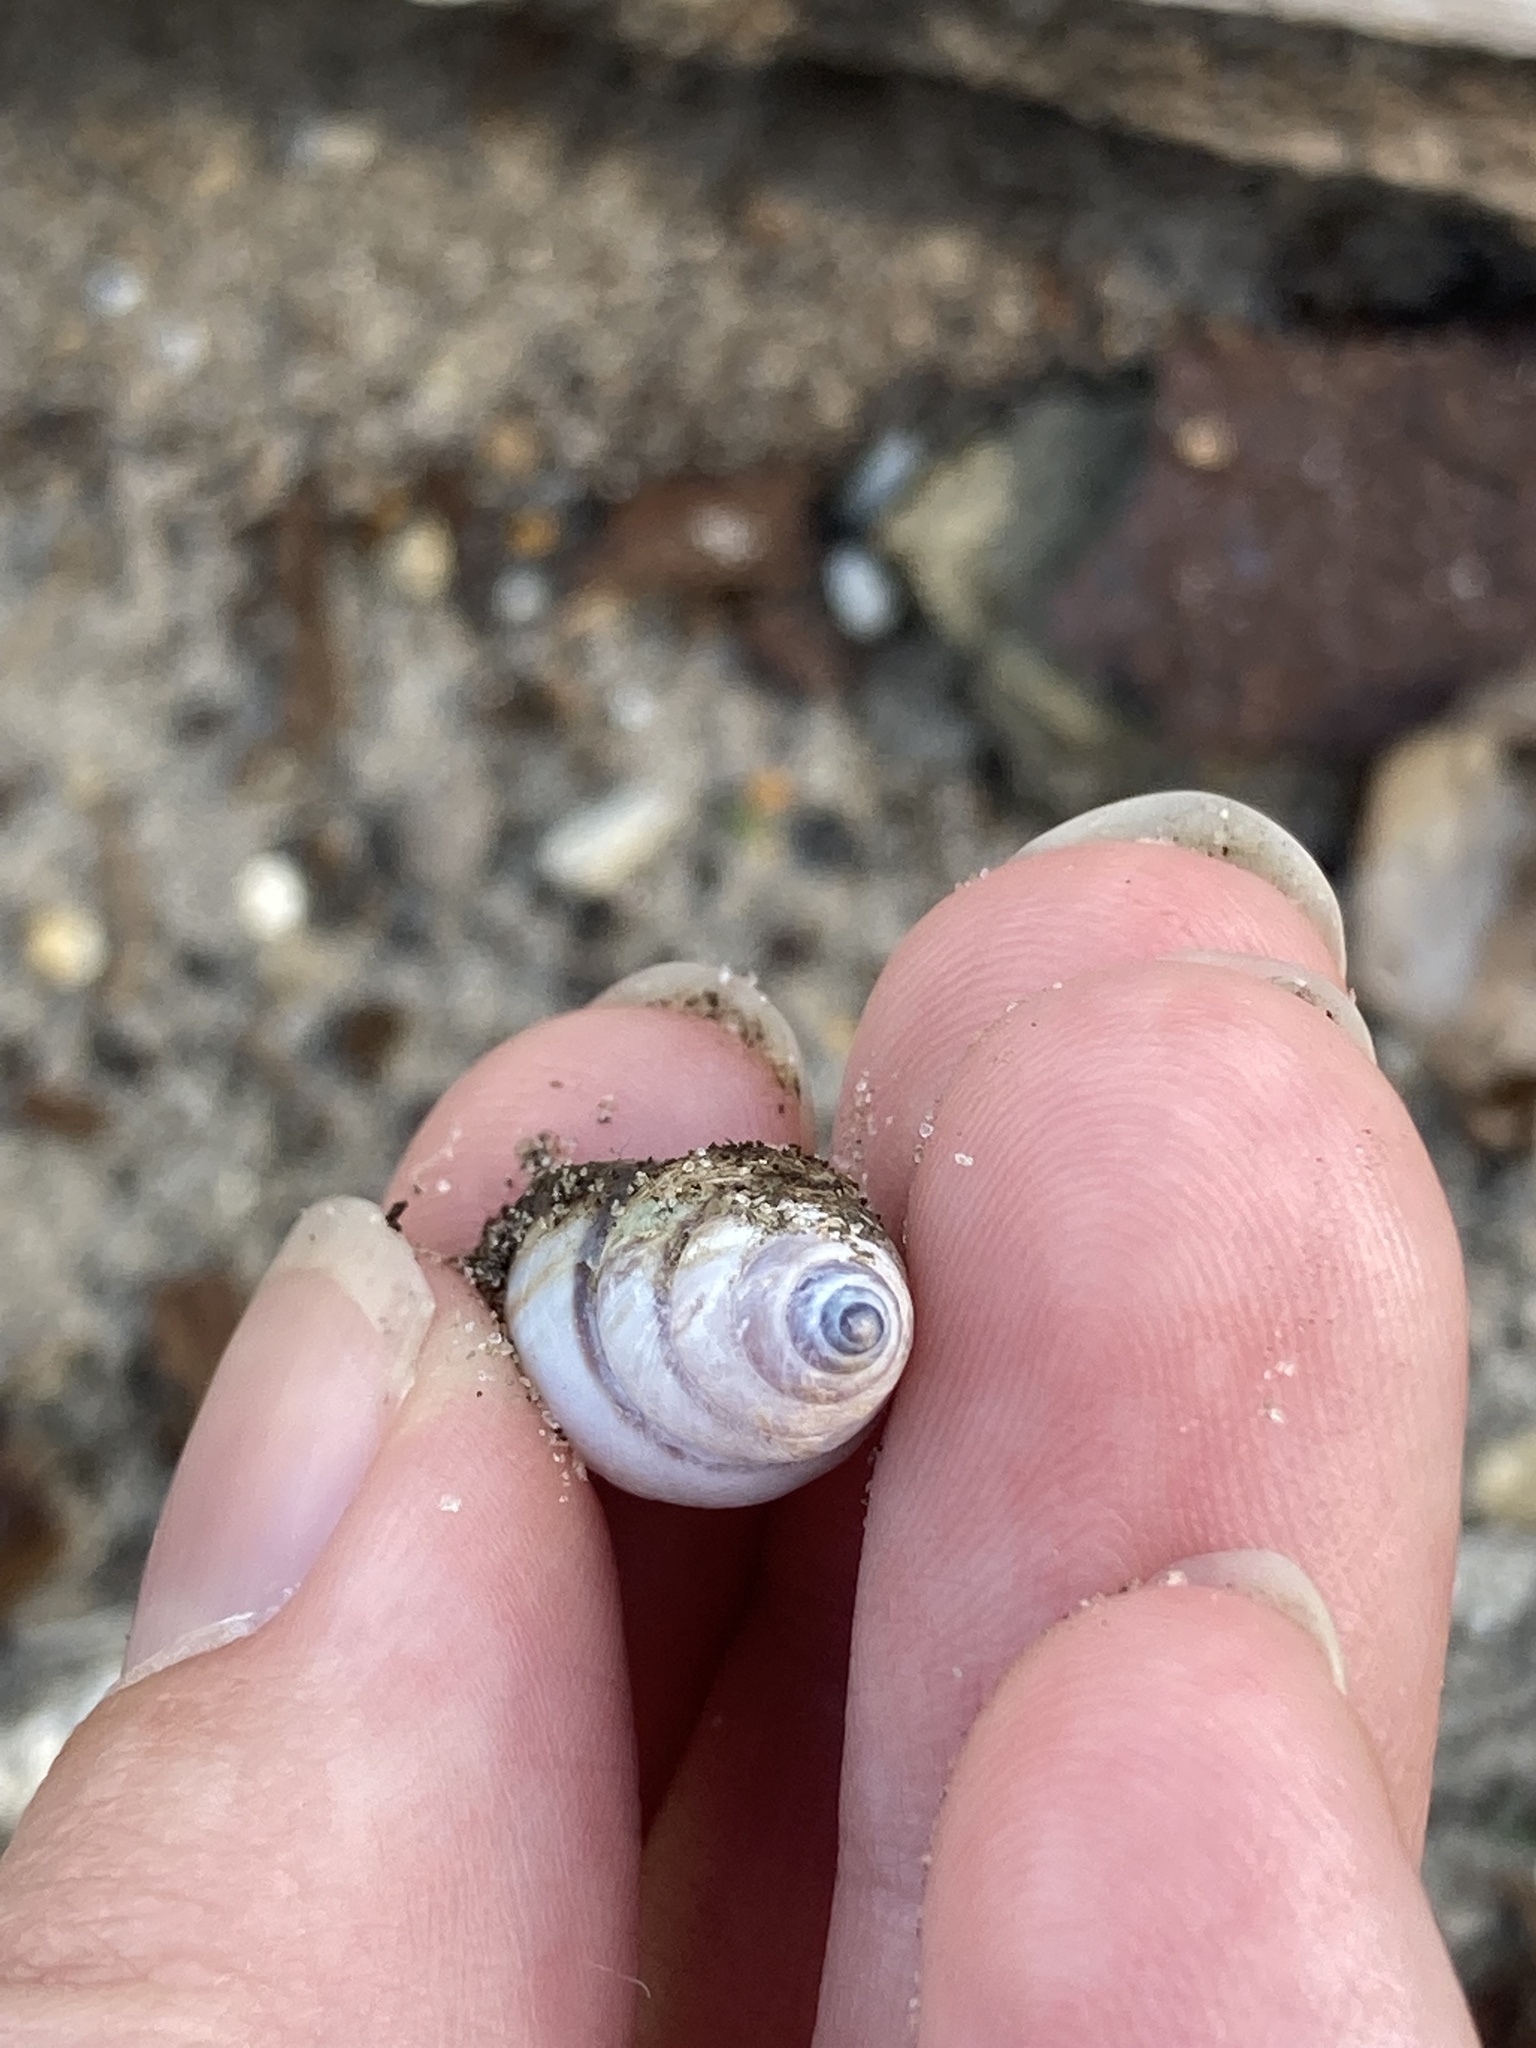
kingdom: Animalia
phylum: Mollusca
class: Gastropoda
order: Stylommatophora
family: Bulimulidae
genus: Drymaeus
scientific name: Drymaeus
